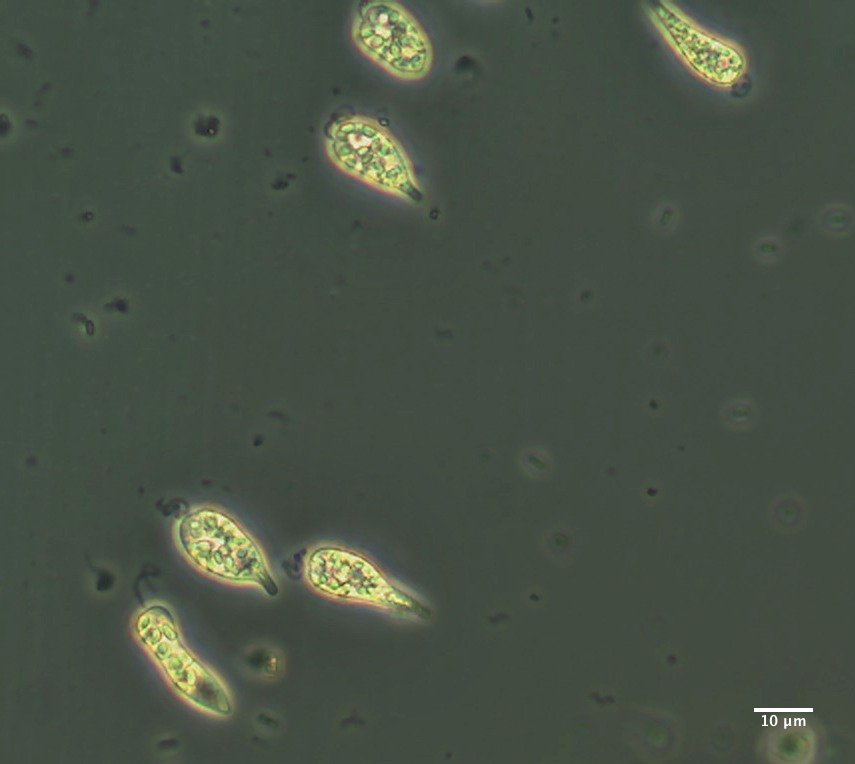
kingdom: Protozoa
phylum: Euglenozoa
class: Peranemea
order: Natomonadida
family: Astasiidae
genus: Astasia
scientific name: Astasia
